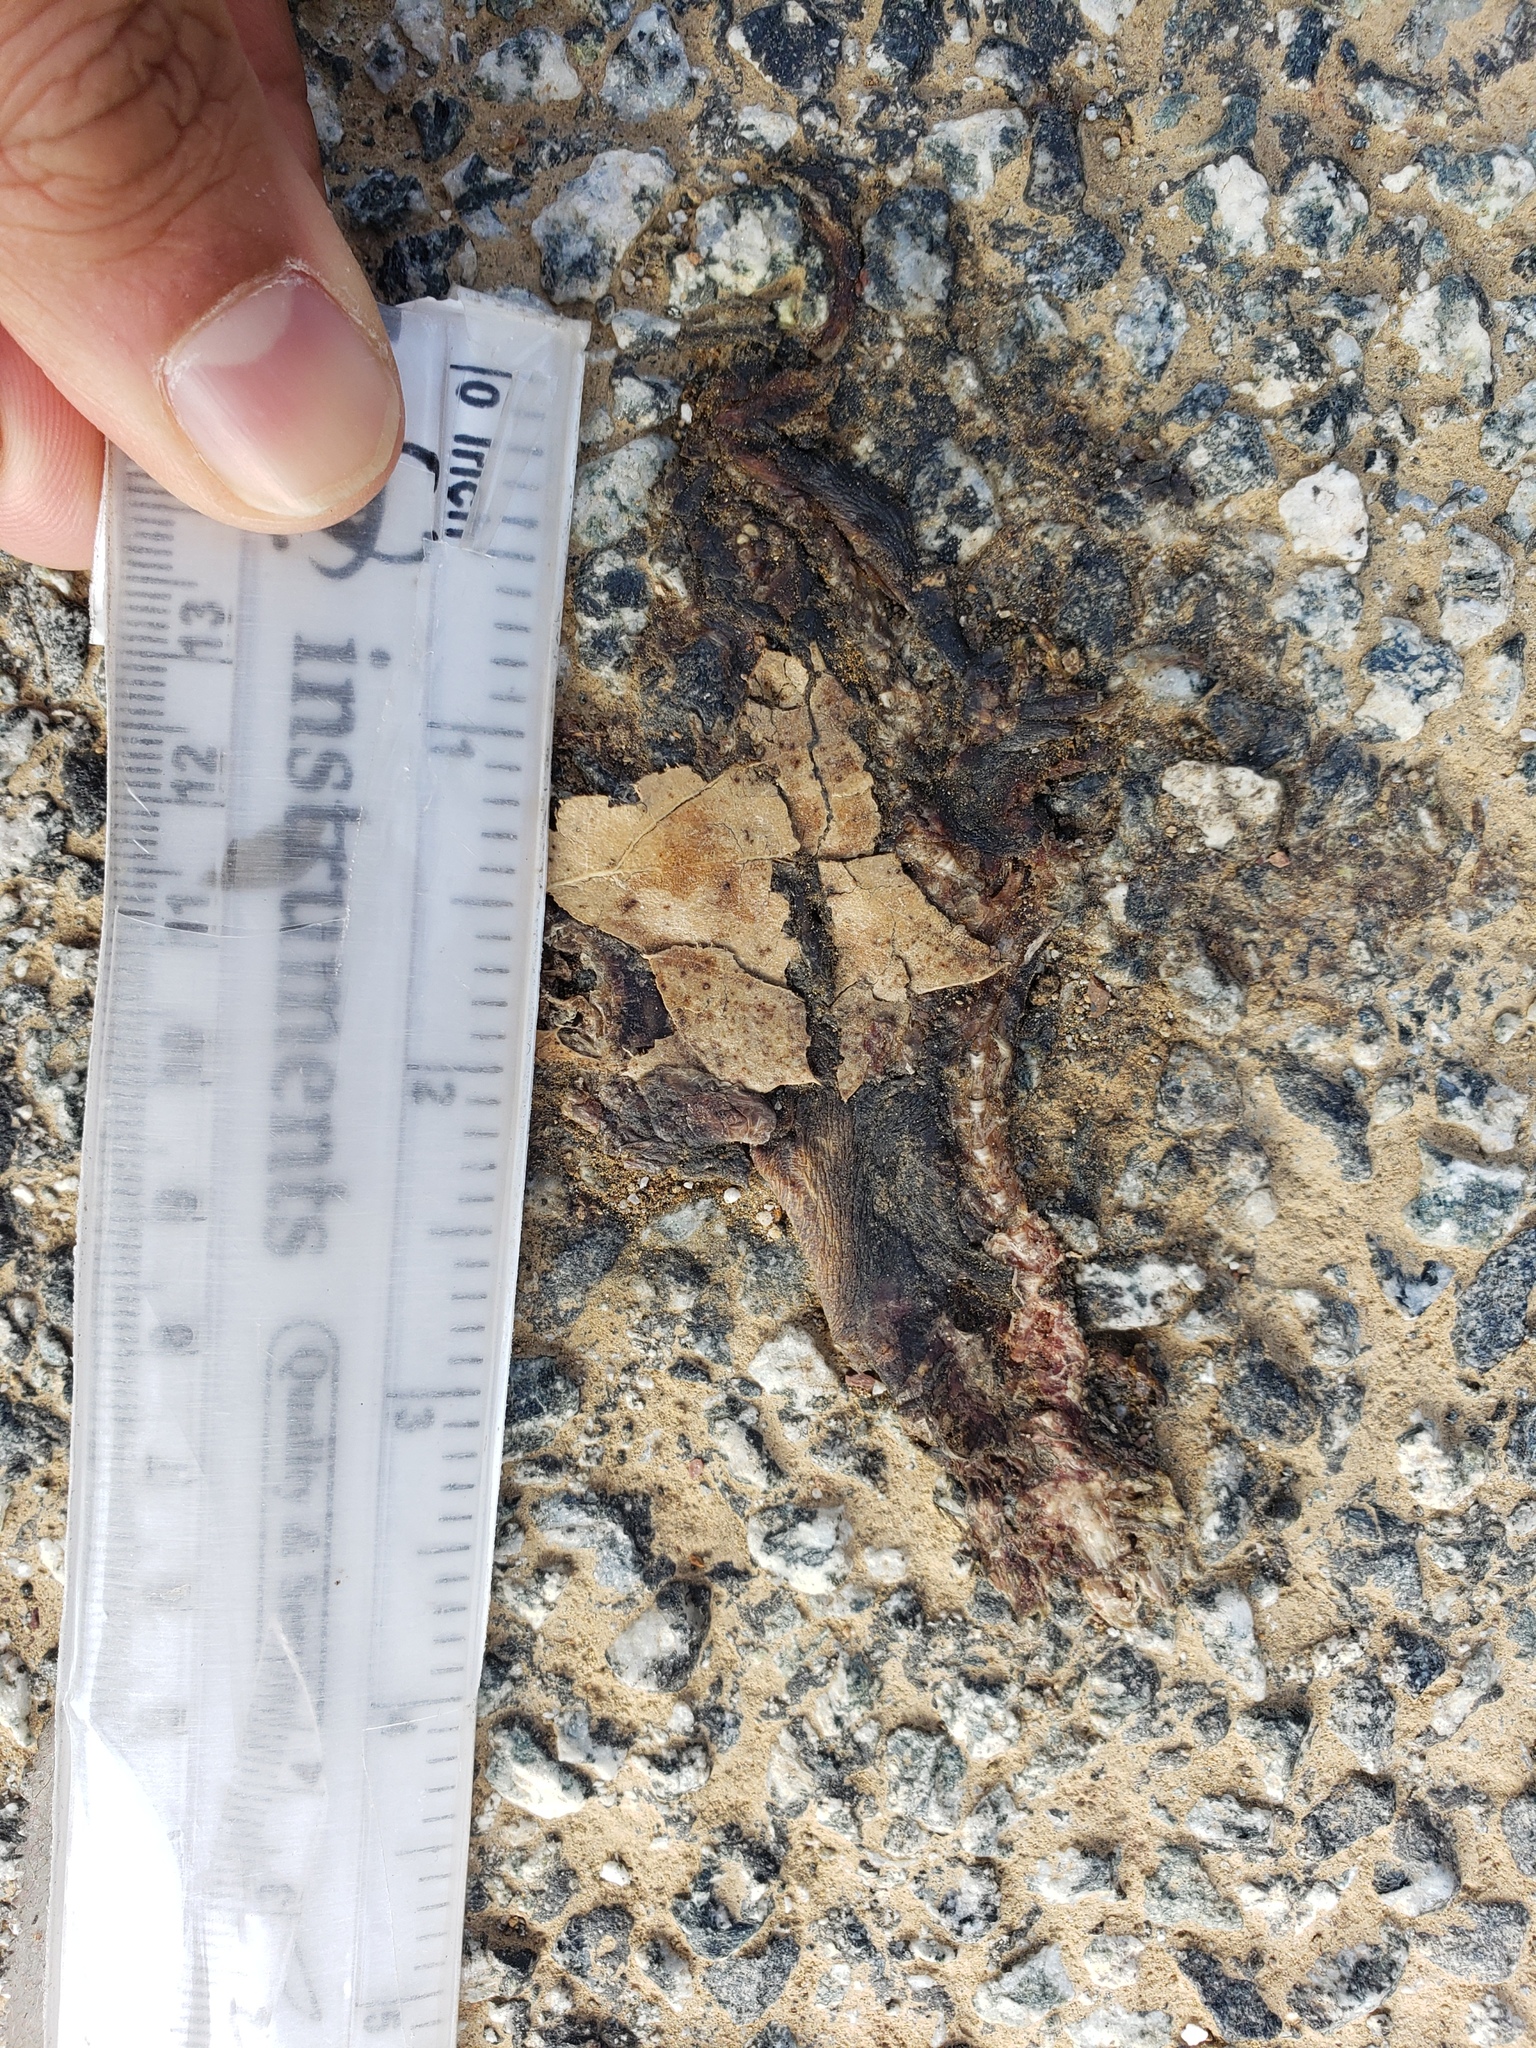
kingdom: Animalia
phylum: Chordata
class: Amphibia
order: Caudata
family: Salamandridae
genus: Taricha
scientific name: Taricha
